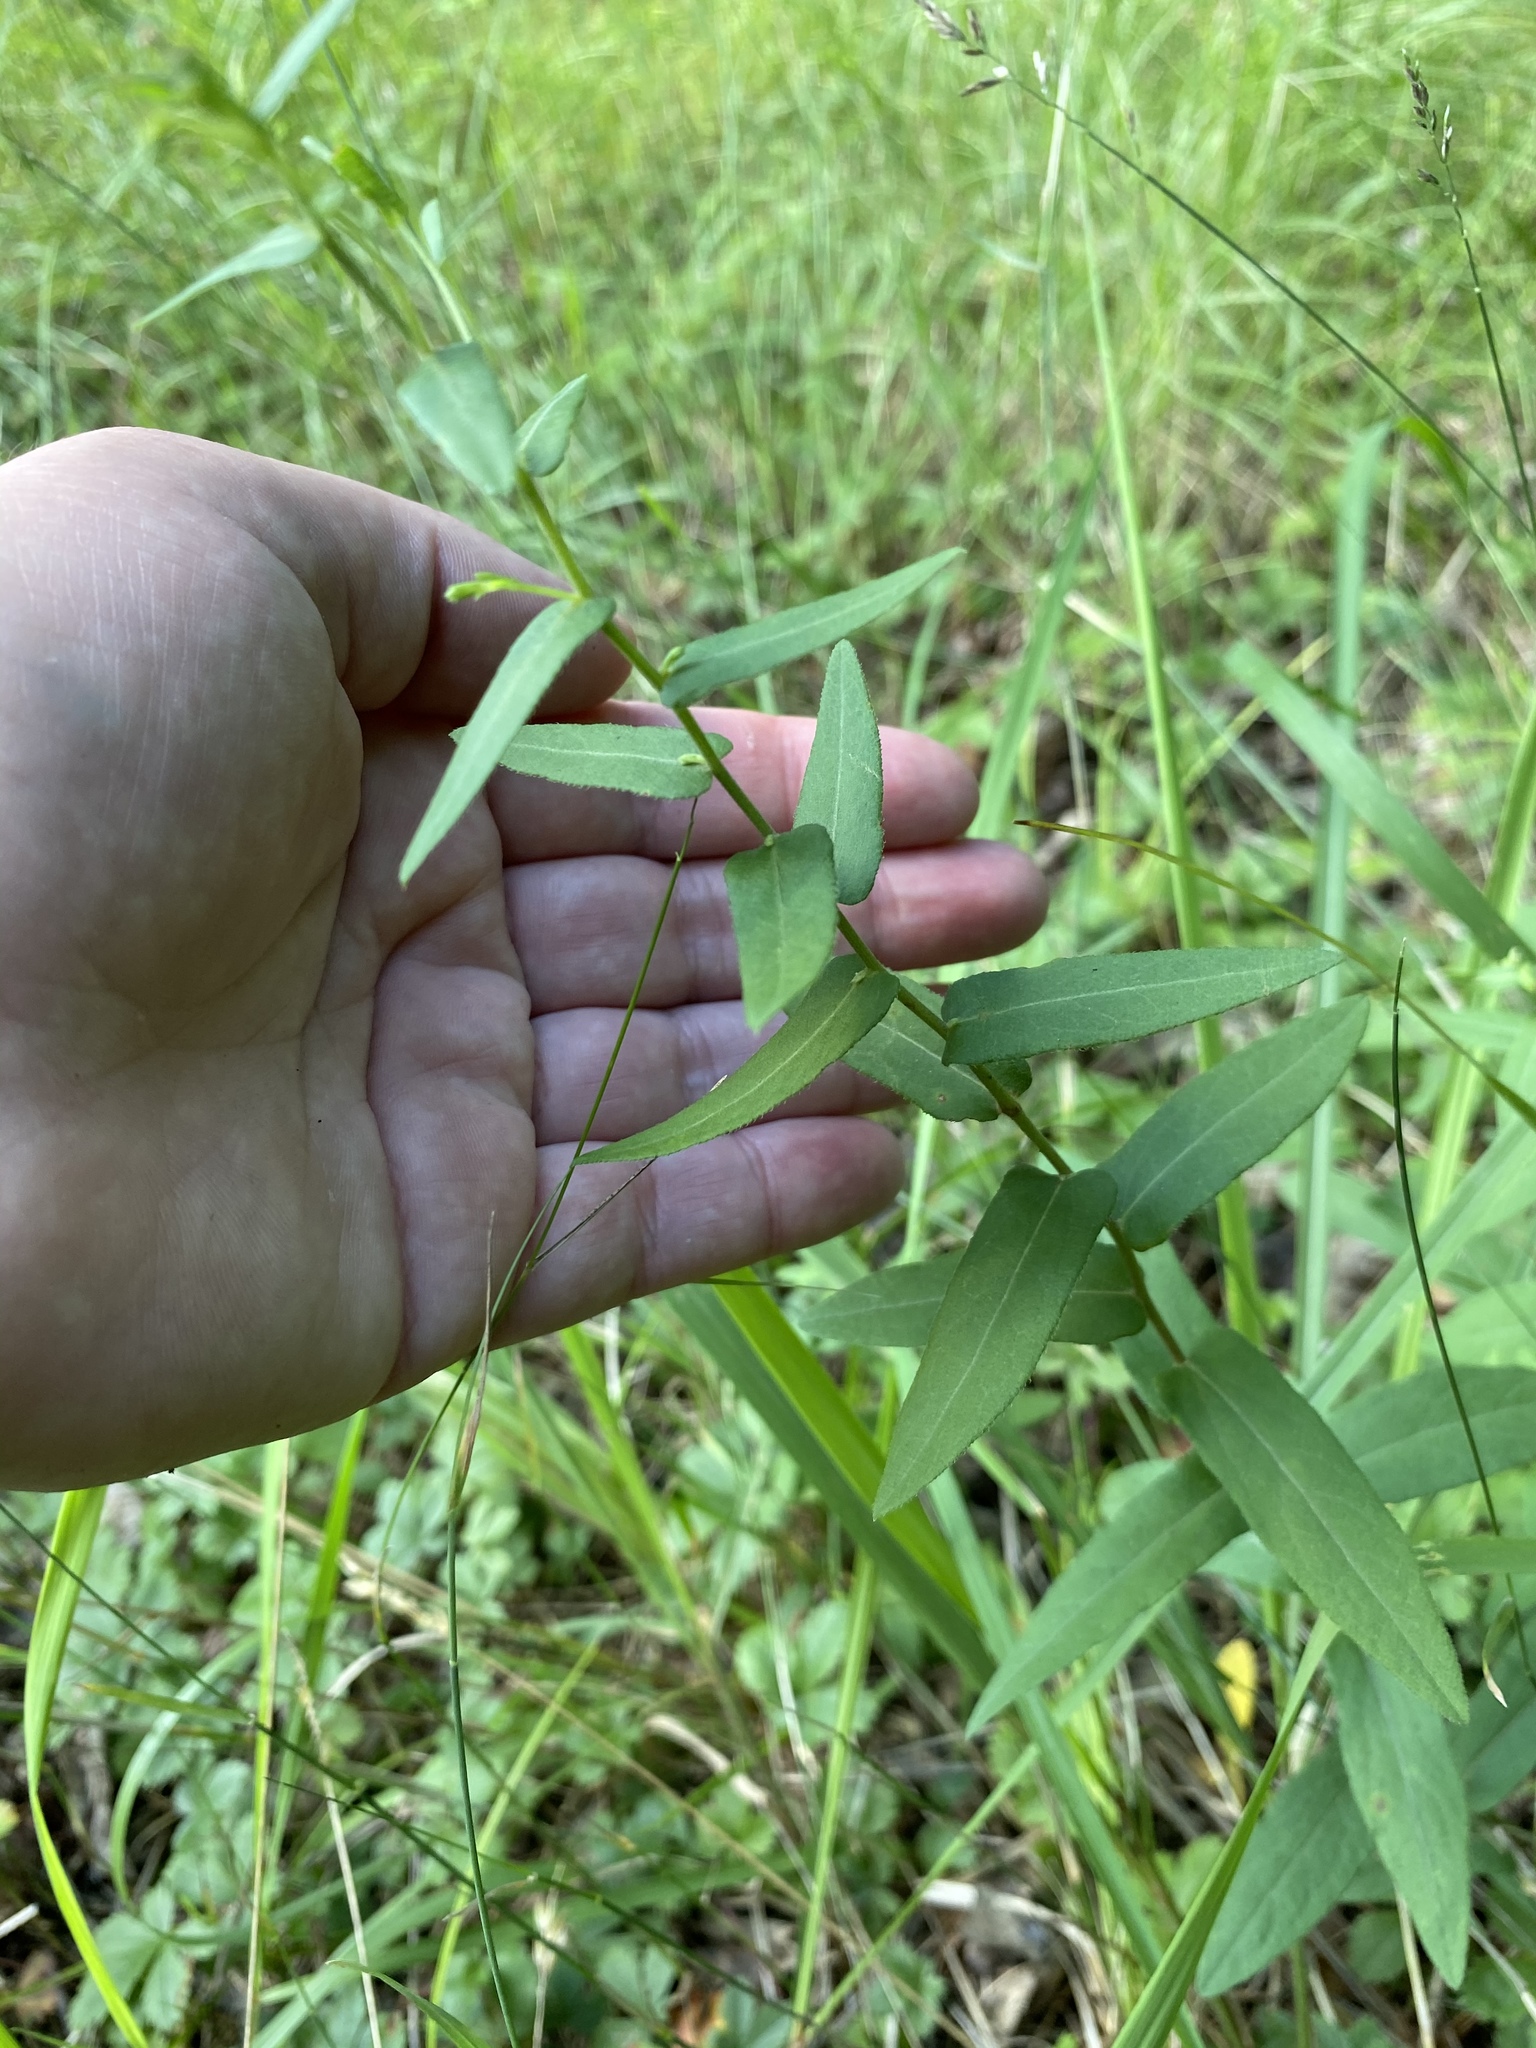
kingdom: Plantae
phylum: Tracheophyta
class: Magnoliopsida
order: Asterales
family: Asteraceae
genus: Symphyotrichum
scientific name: Symphyotrichum phlogifolium
